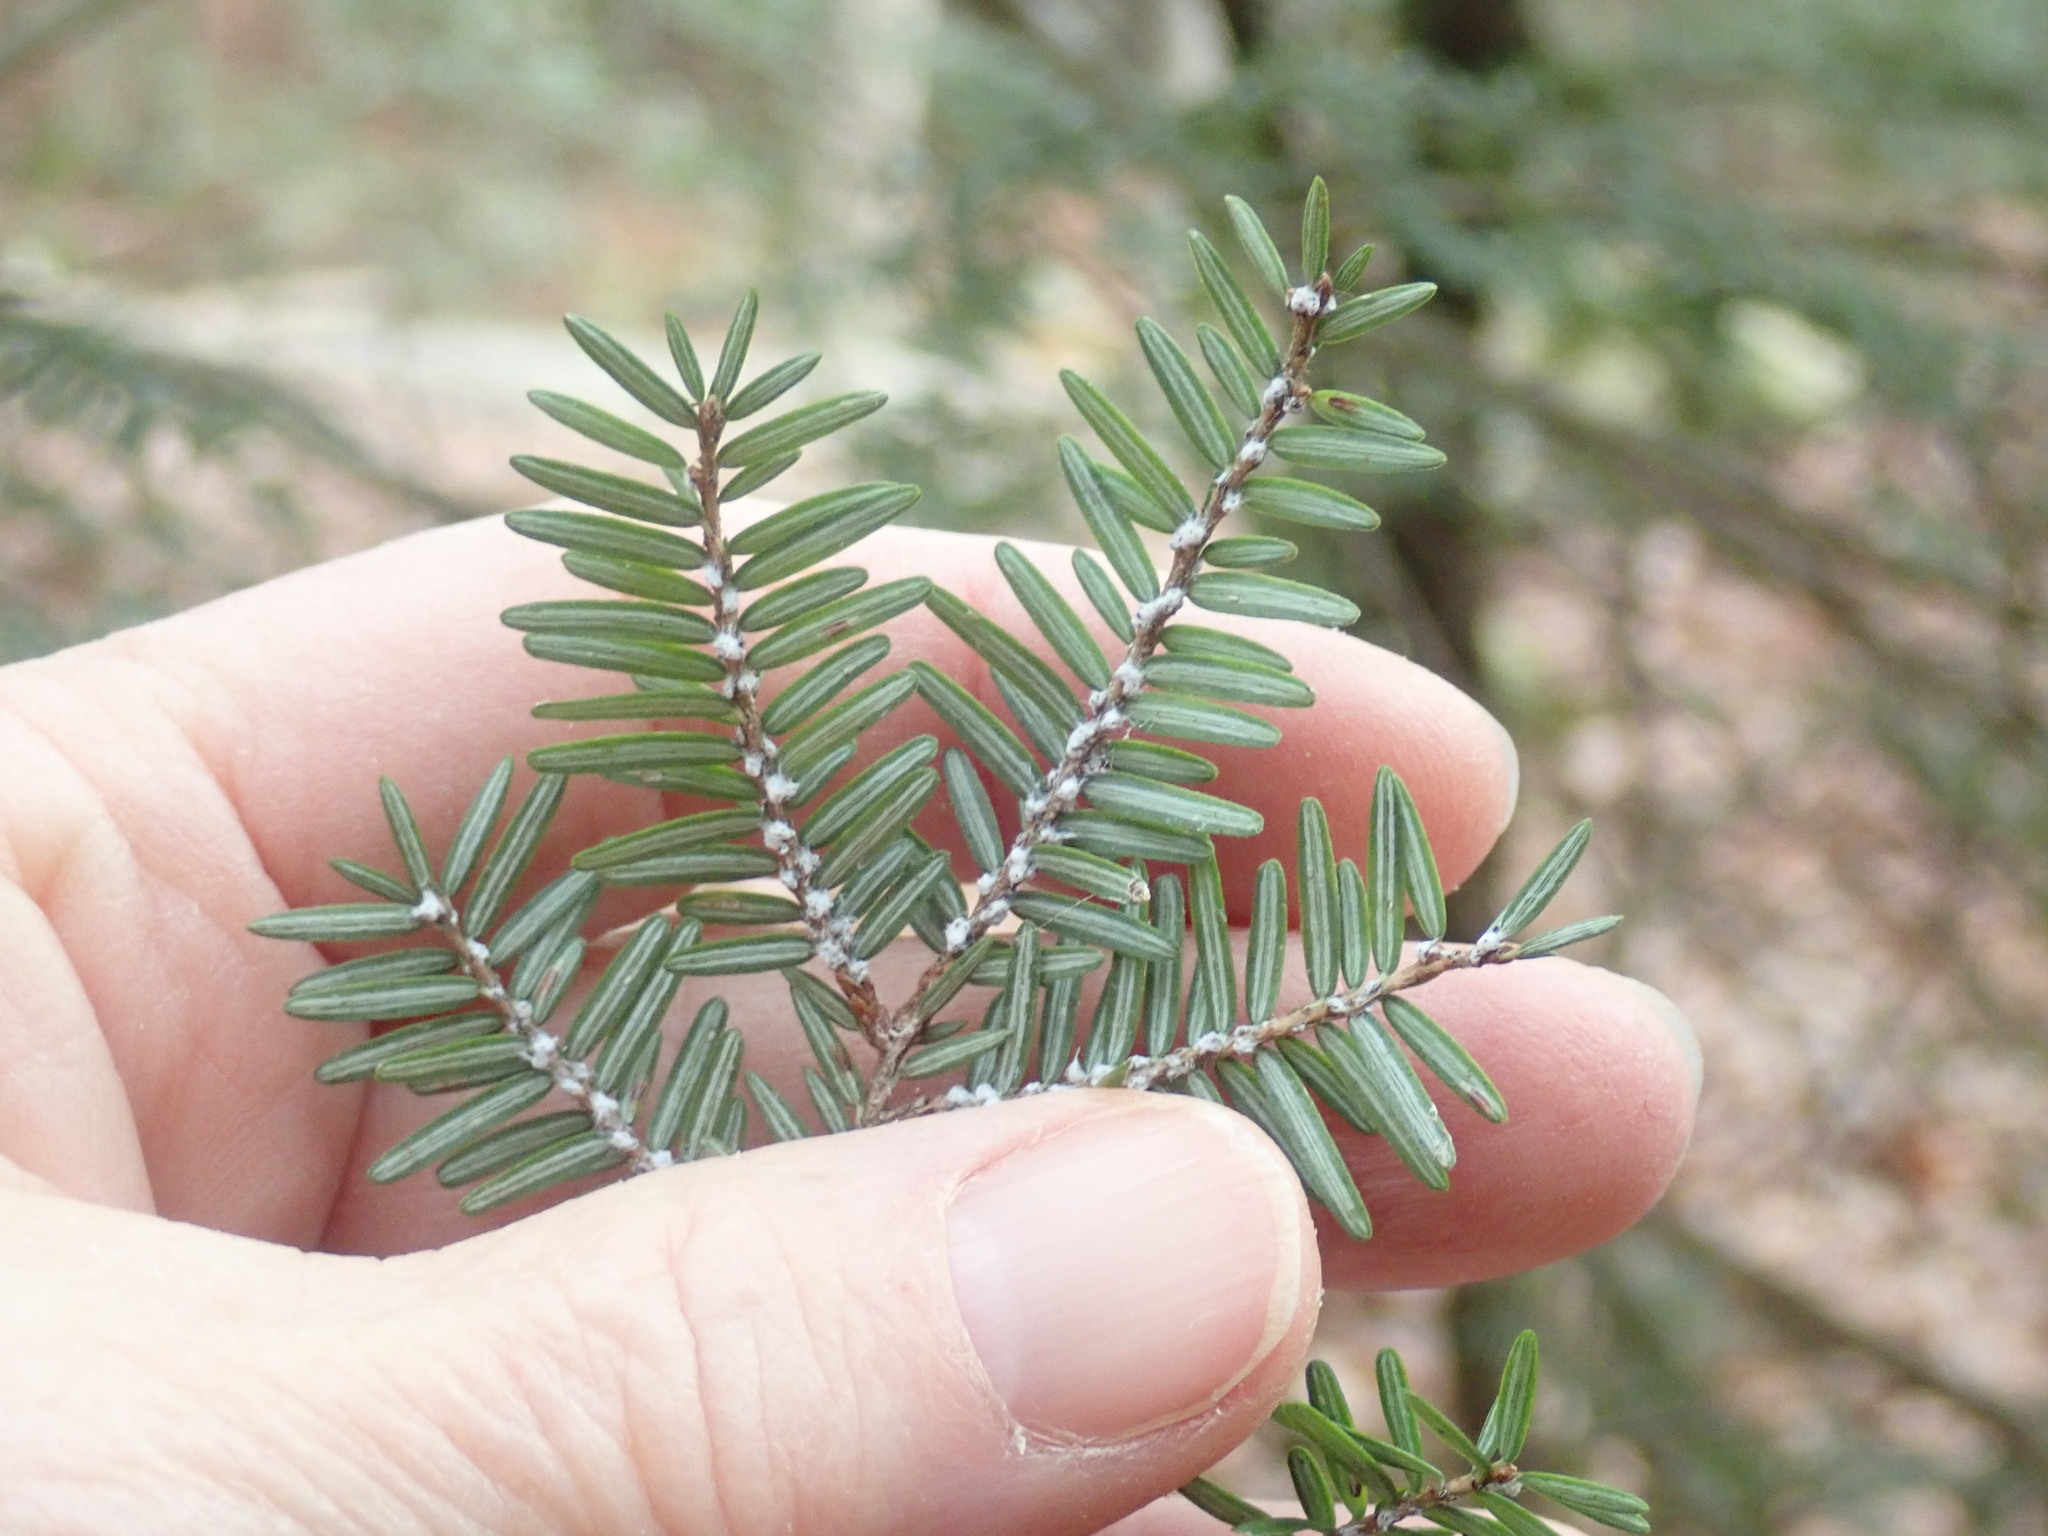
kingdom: Animalia
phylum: Arthropoda
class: Insecta
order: Hemiptera
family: Adelgidae
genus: Adelges
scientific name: Adelges tsugae
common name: Hemlock woolly adelgid
